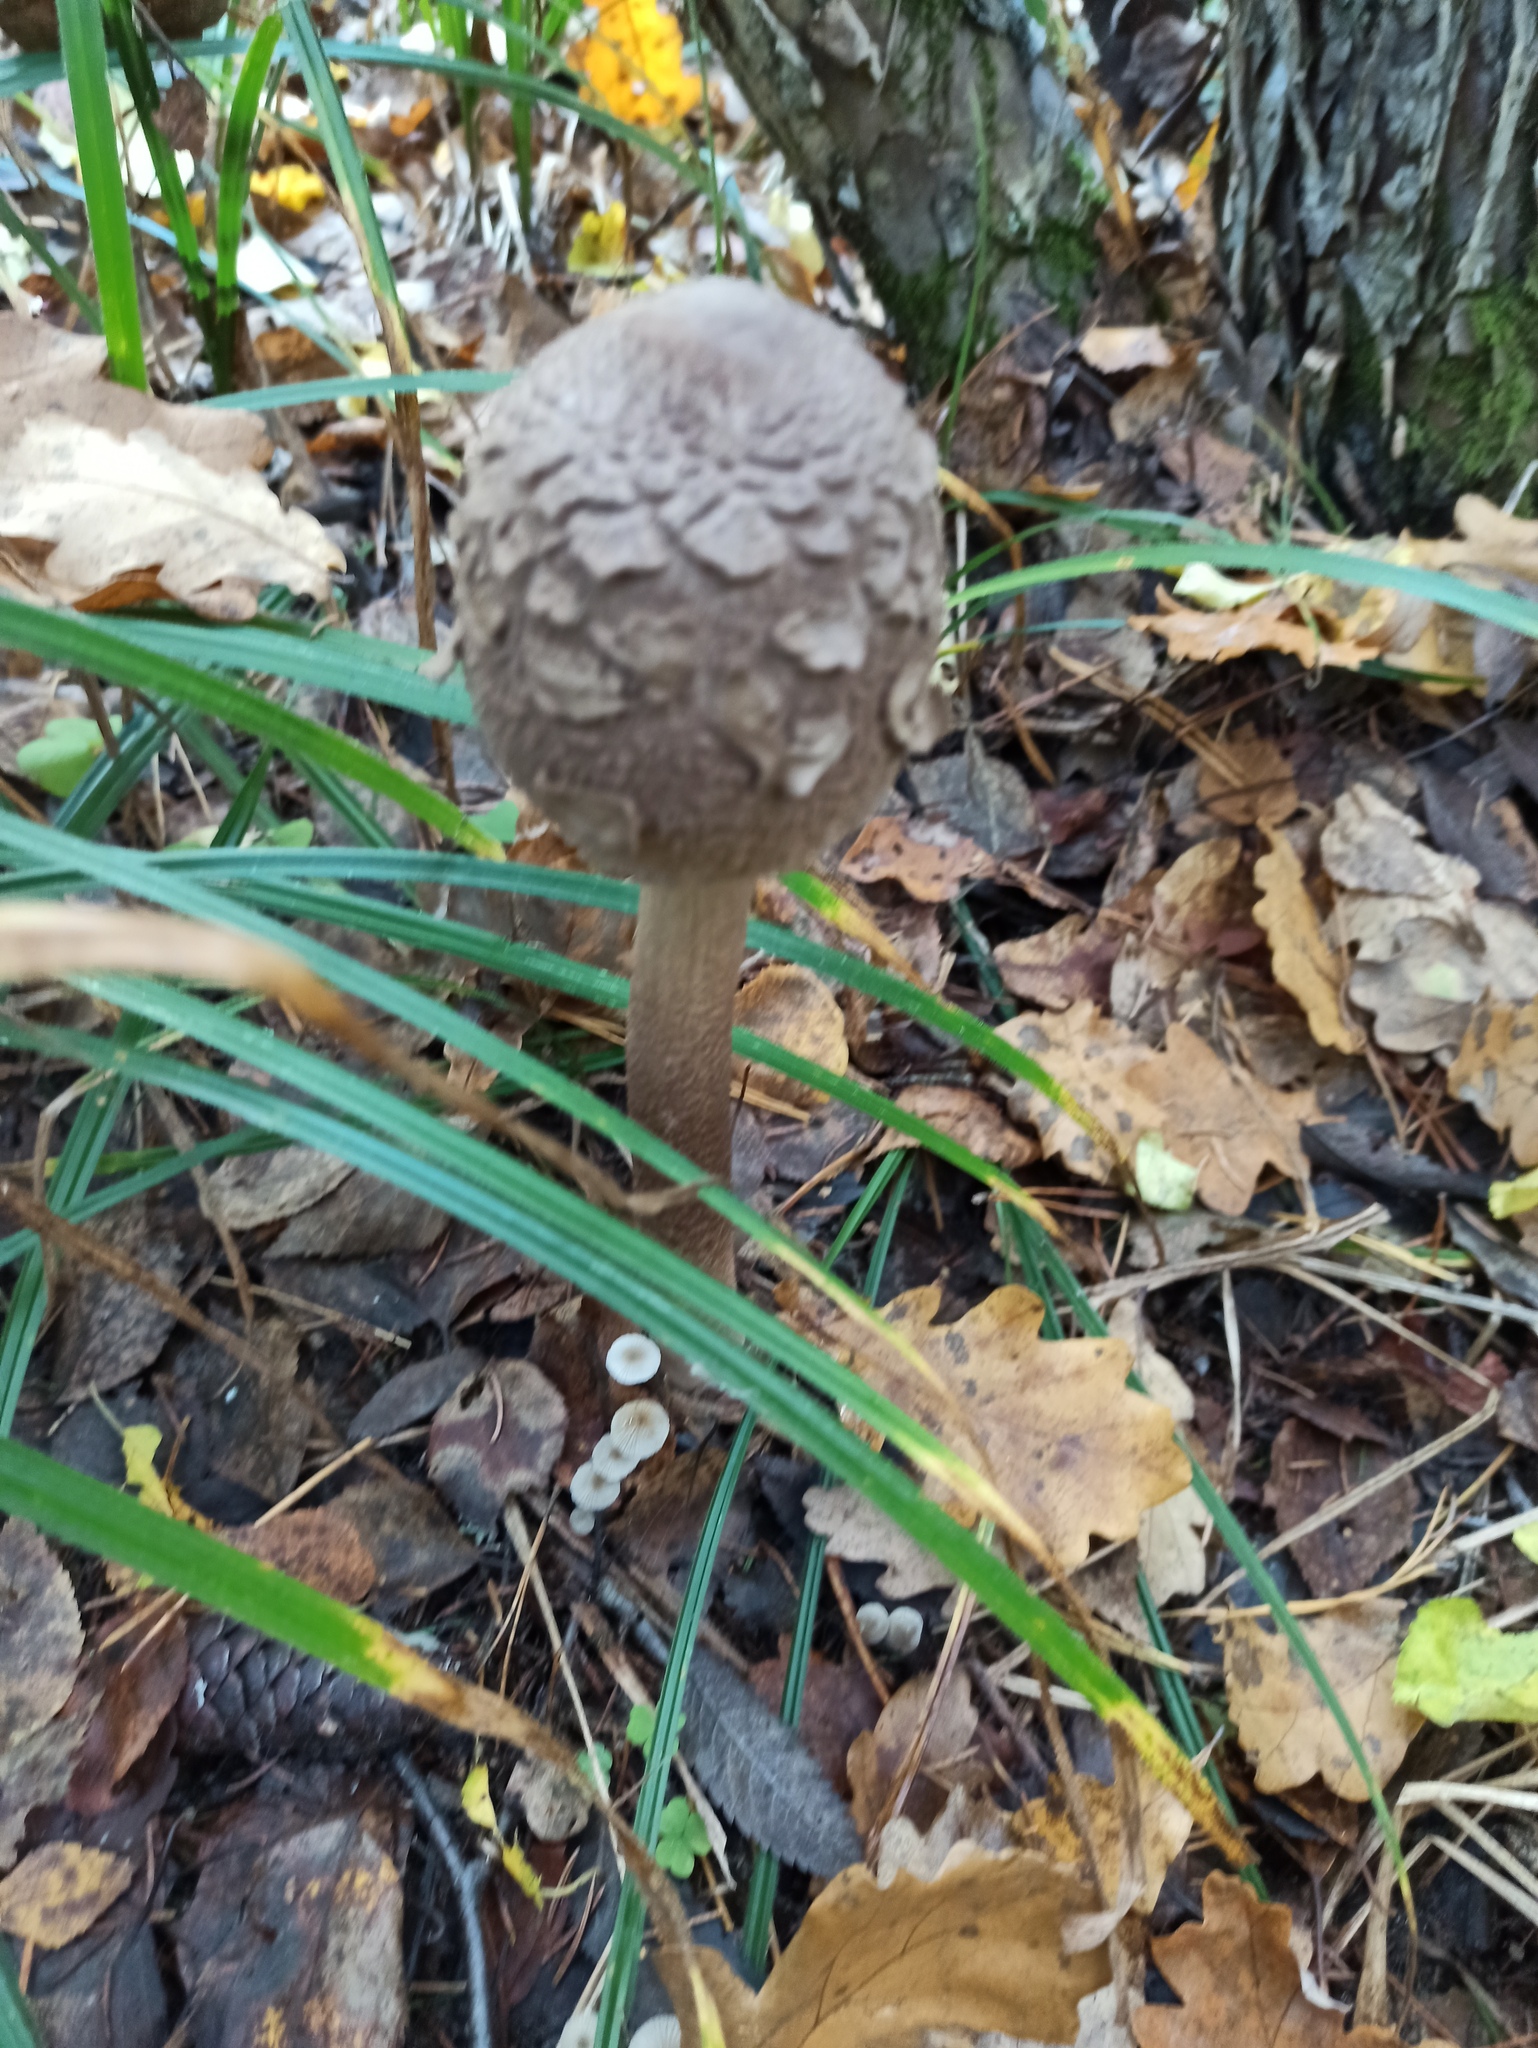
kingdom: Fungi
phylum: Basidiomycota
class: Agaricomycetes
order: Agaricales
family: Agaricaceae
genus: Macrolepiota
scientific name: Macrolepiota procera
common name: Parasol
